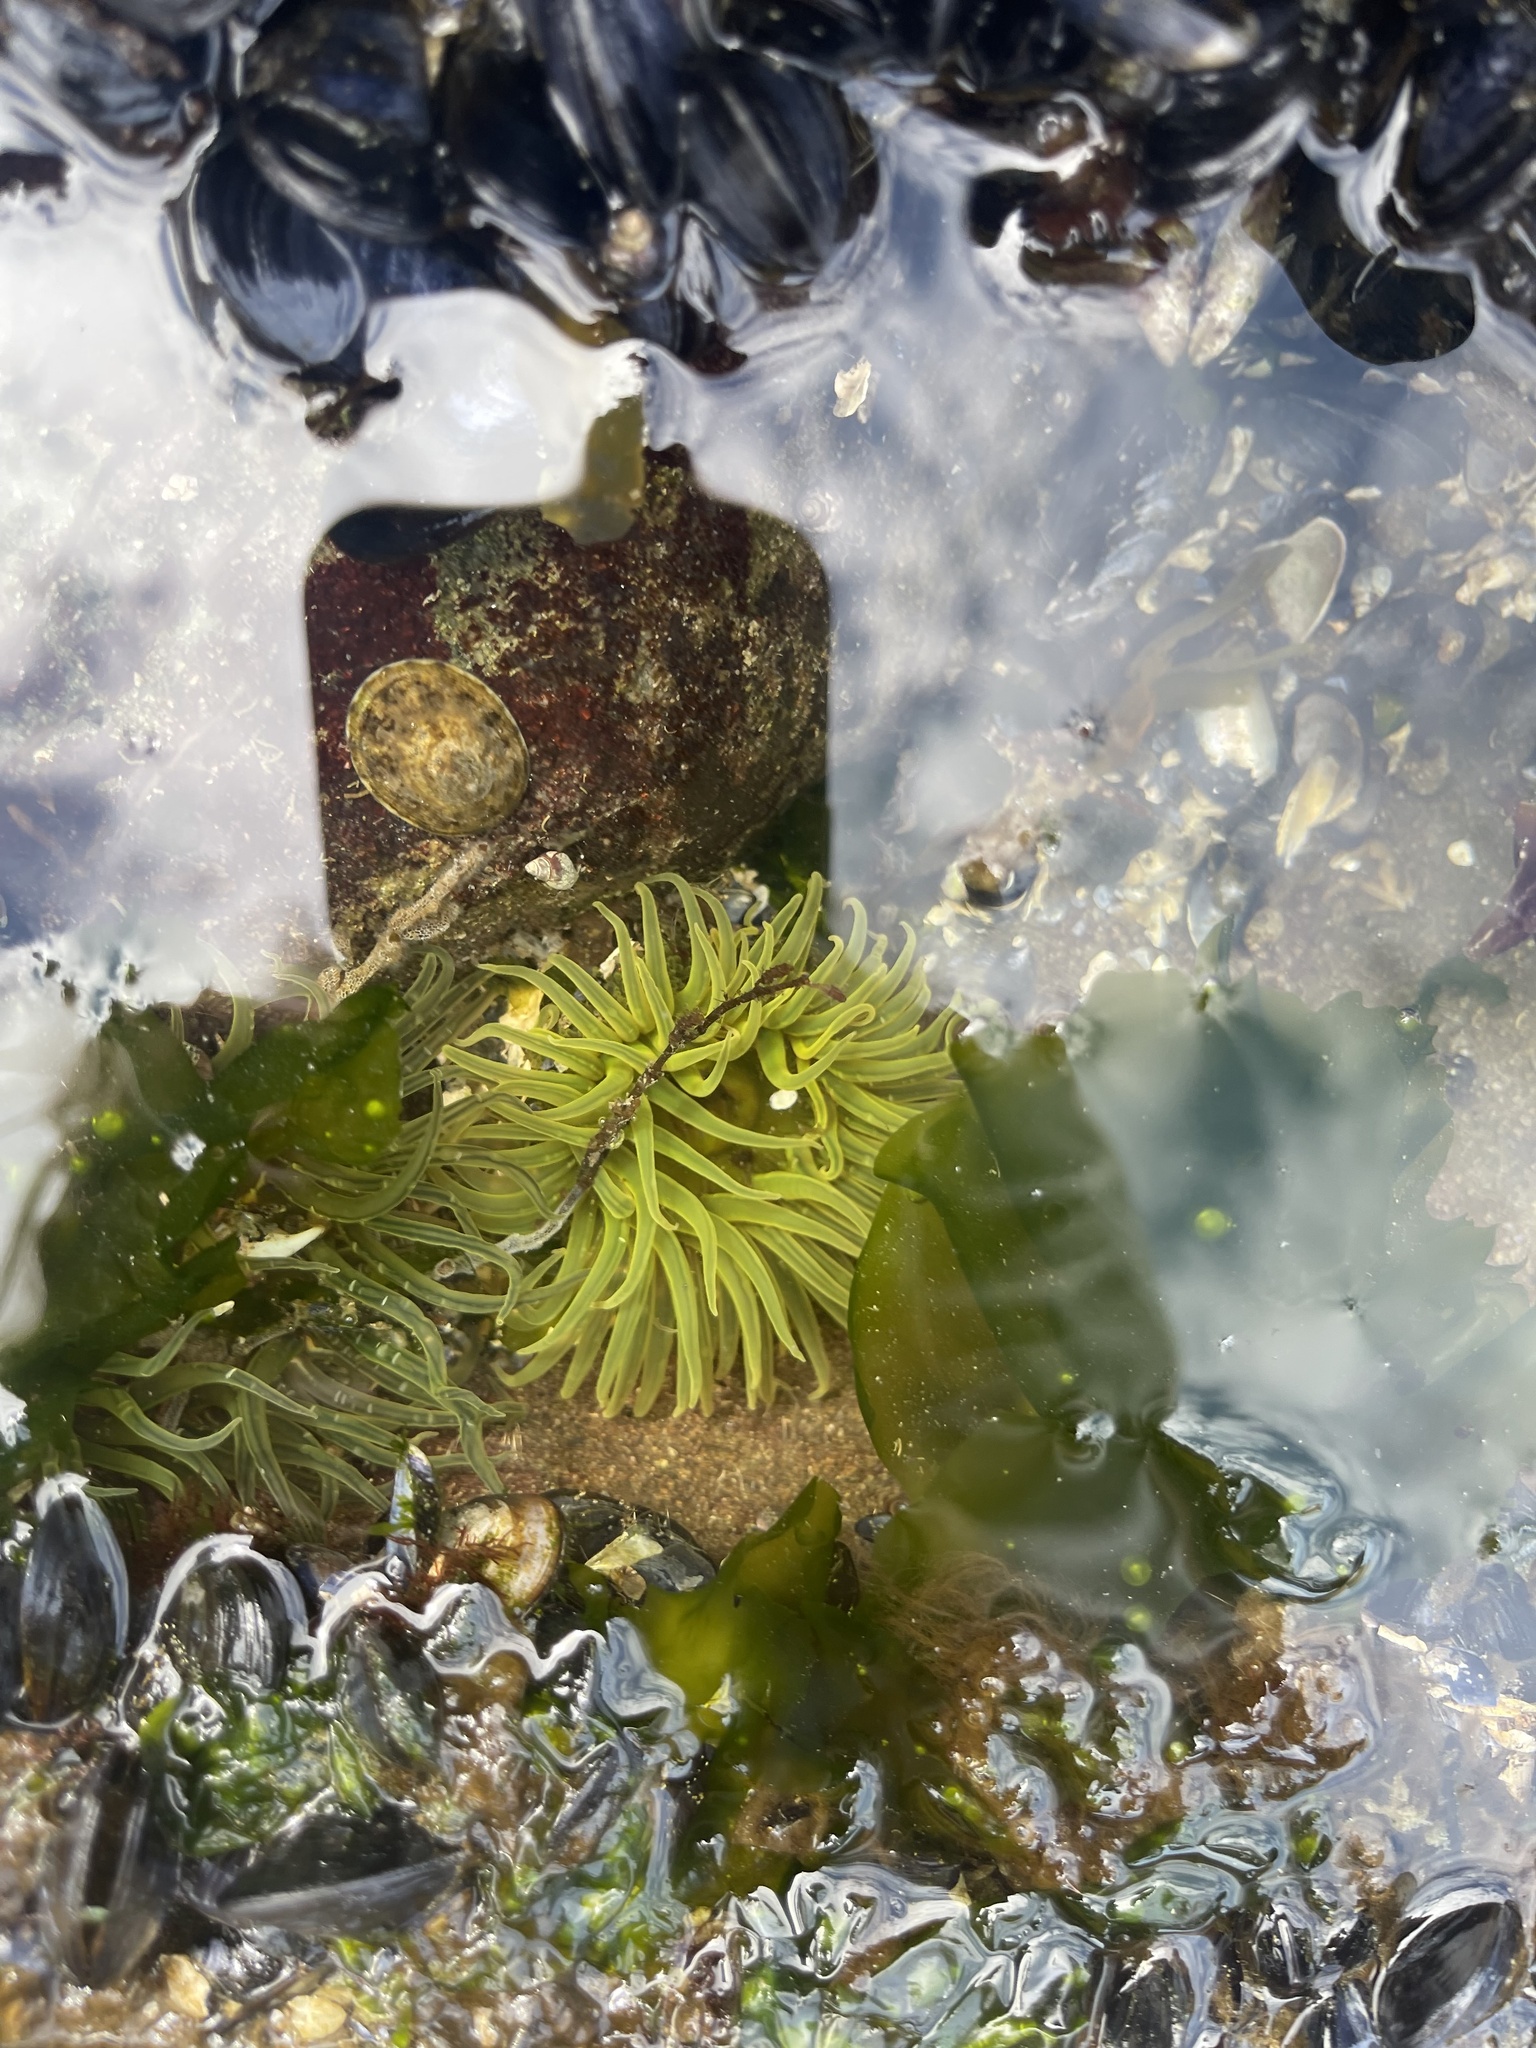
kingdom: Animalia
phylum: Cnidaria
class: Anthozoa
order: Actiniaria
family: Actiniidae
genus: Anthopleura
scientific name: Anthopleura artemisia
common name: Buried sea anemone
